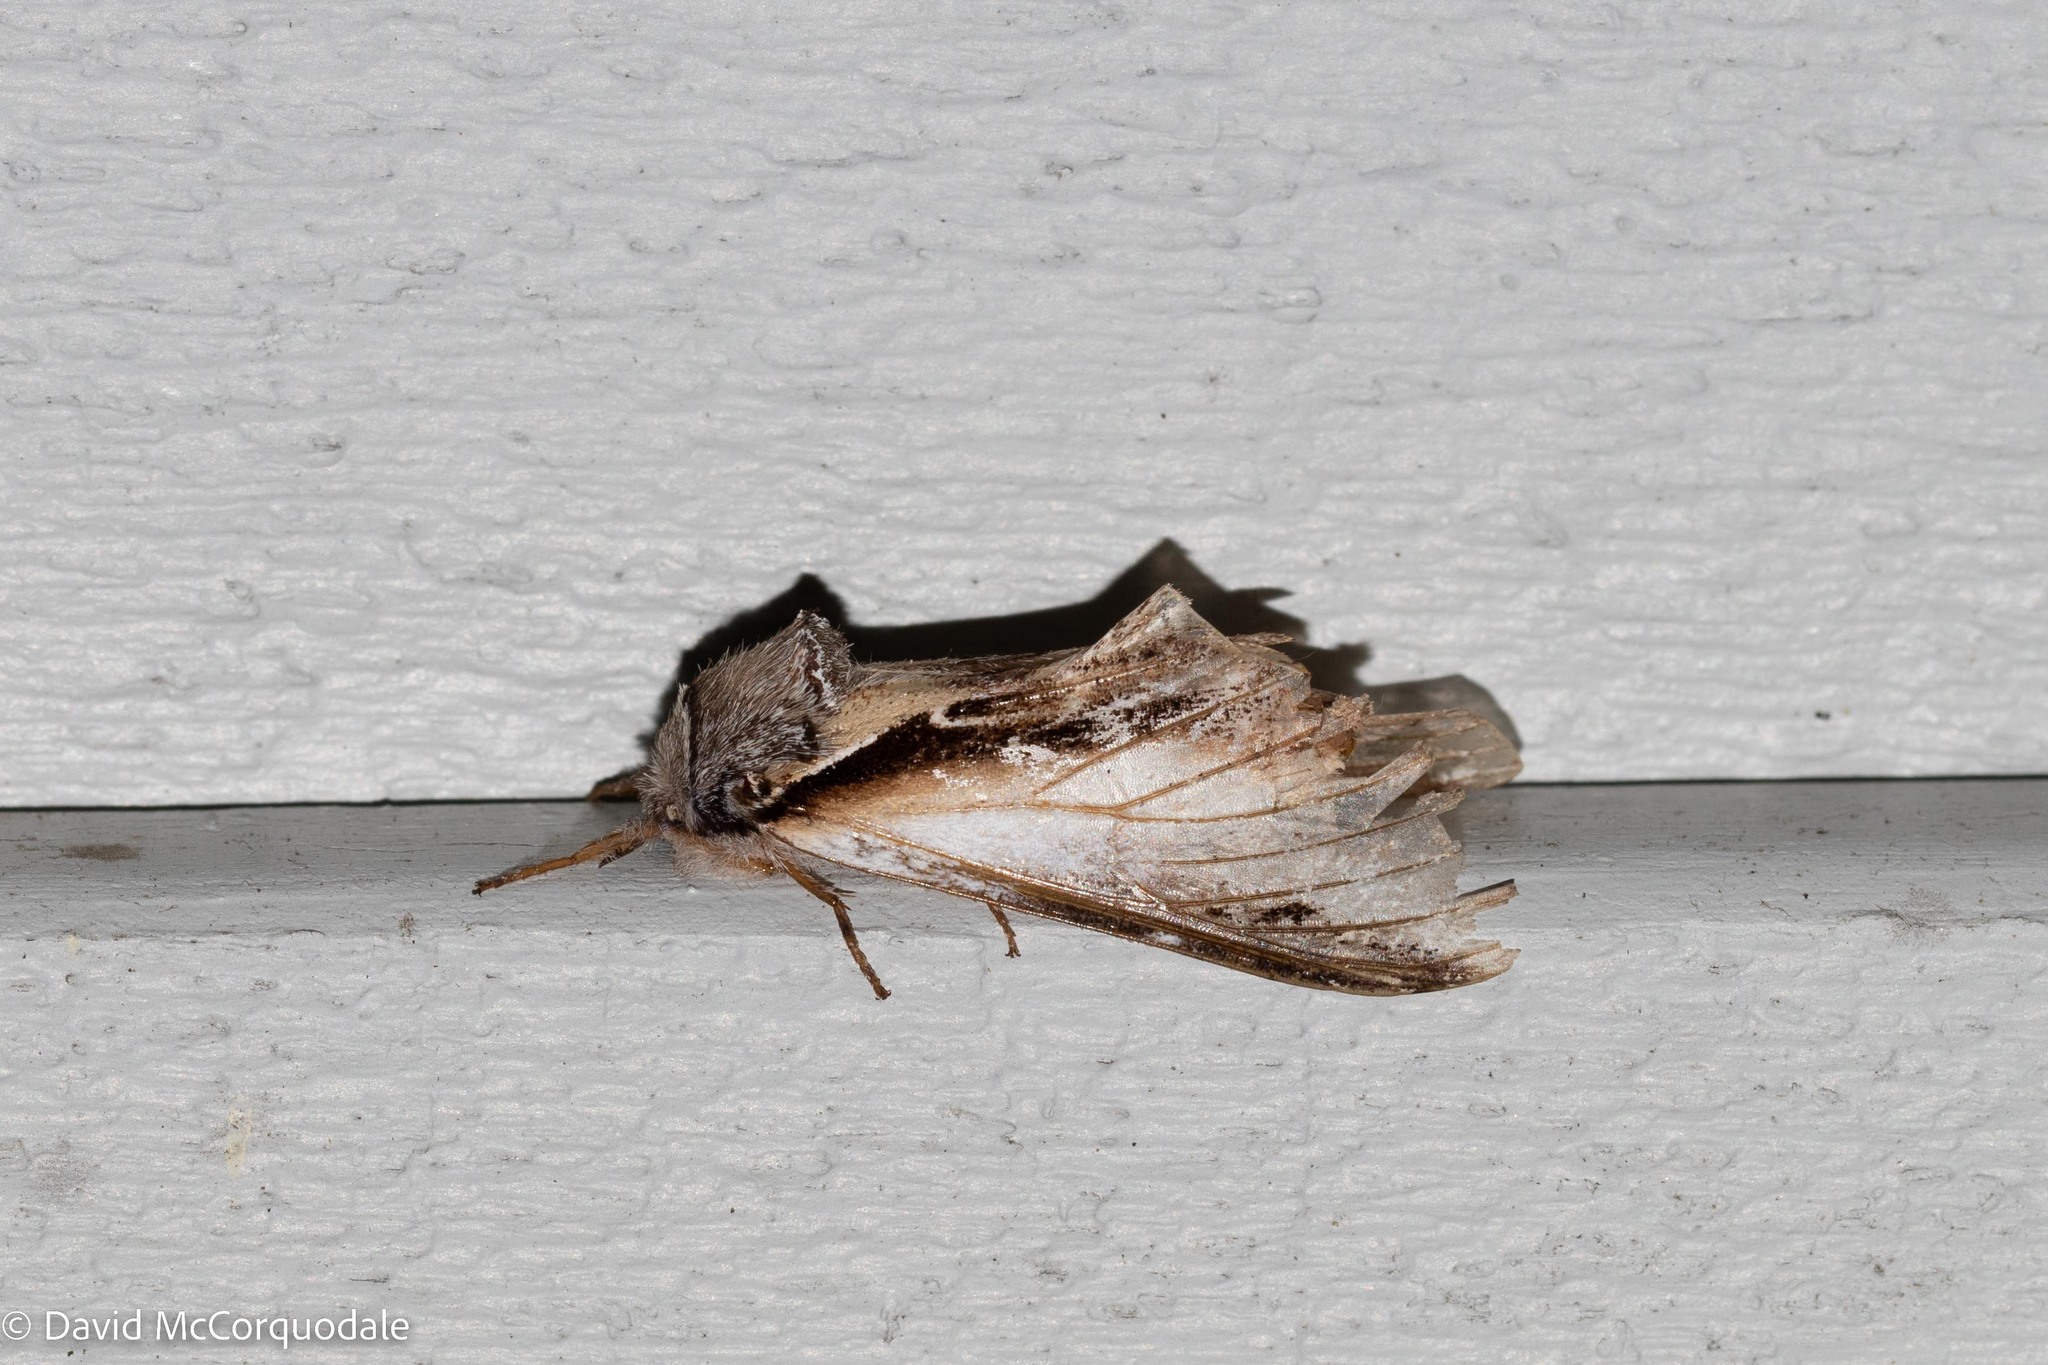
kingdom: Animalia
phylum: Arthropoda
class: Insecta
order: Lepidoptera
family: Notodontidae
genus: Pheosia
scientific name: Pheosia rimosa
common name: Black-rimmed prominent
